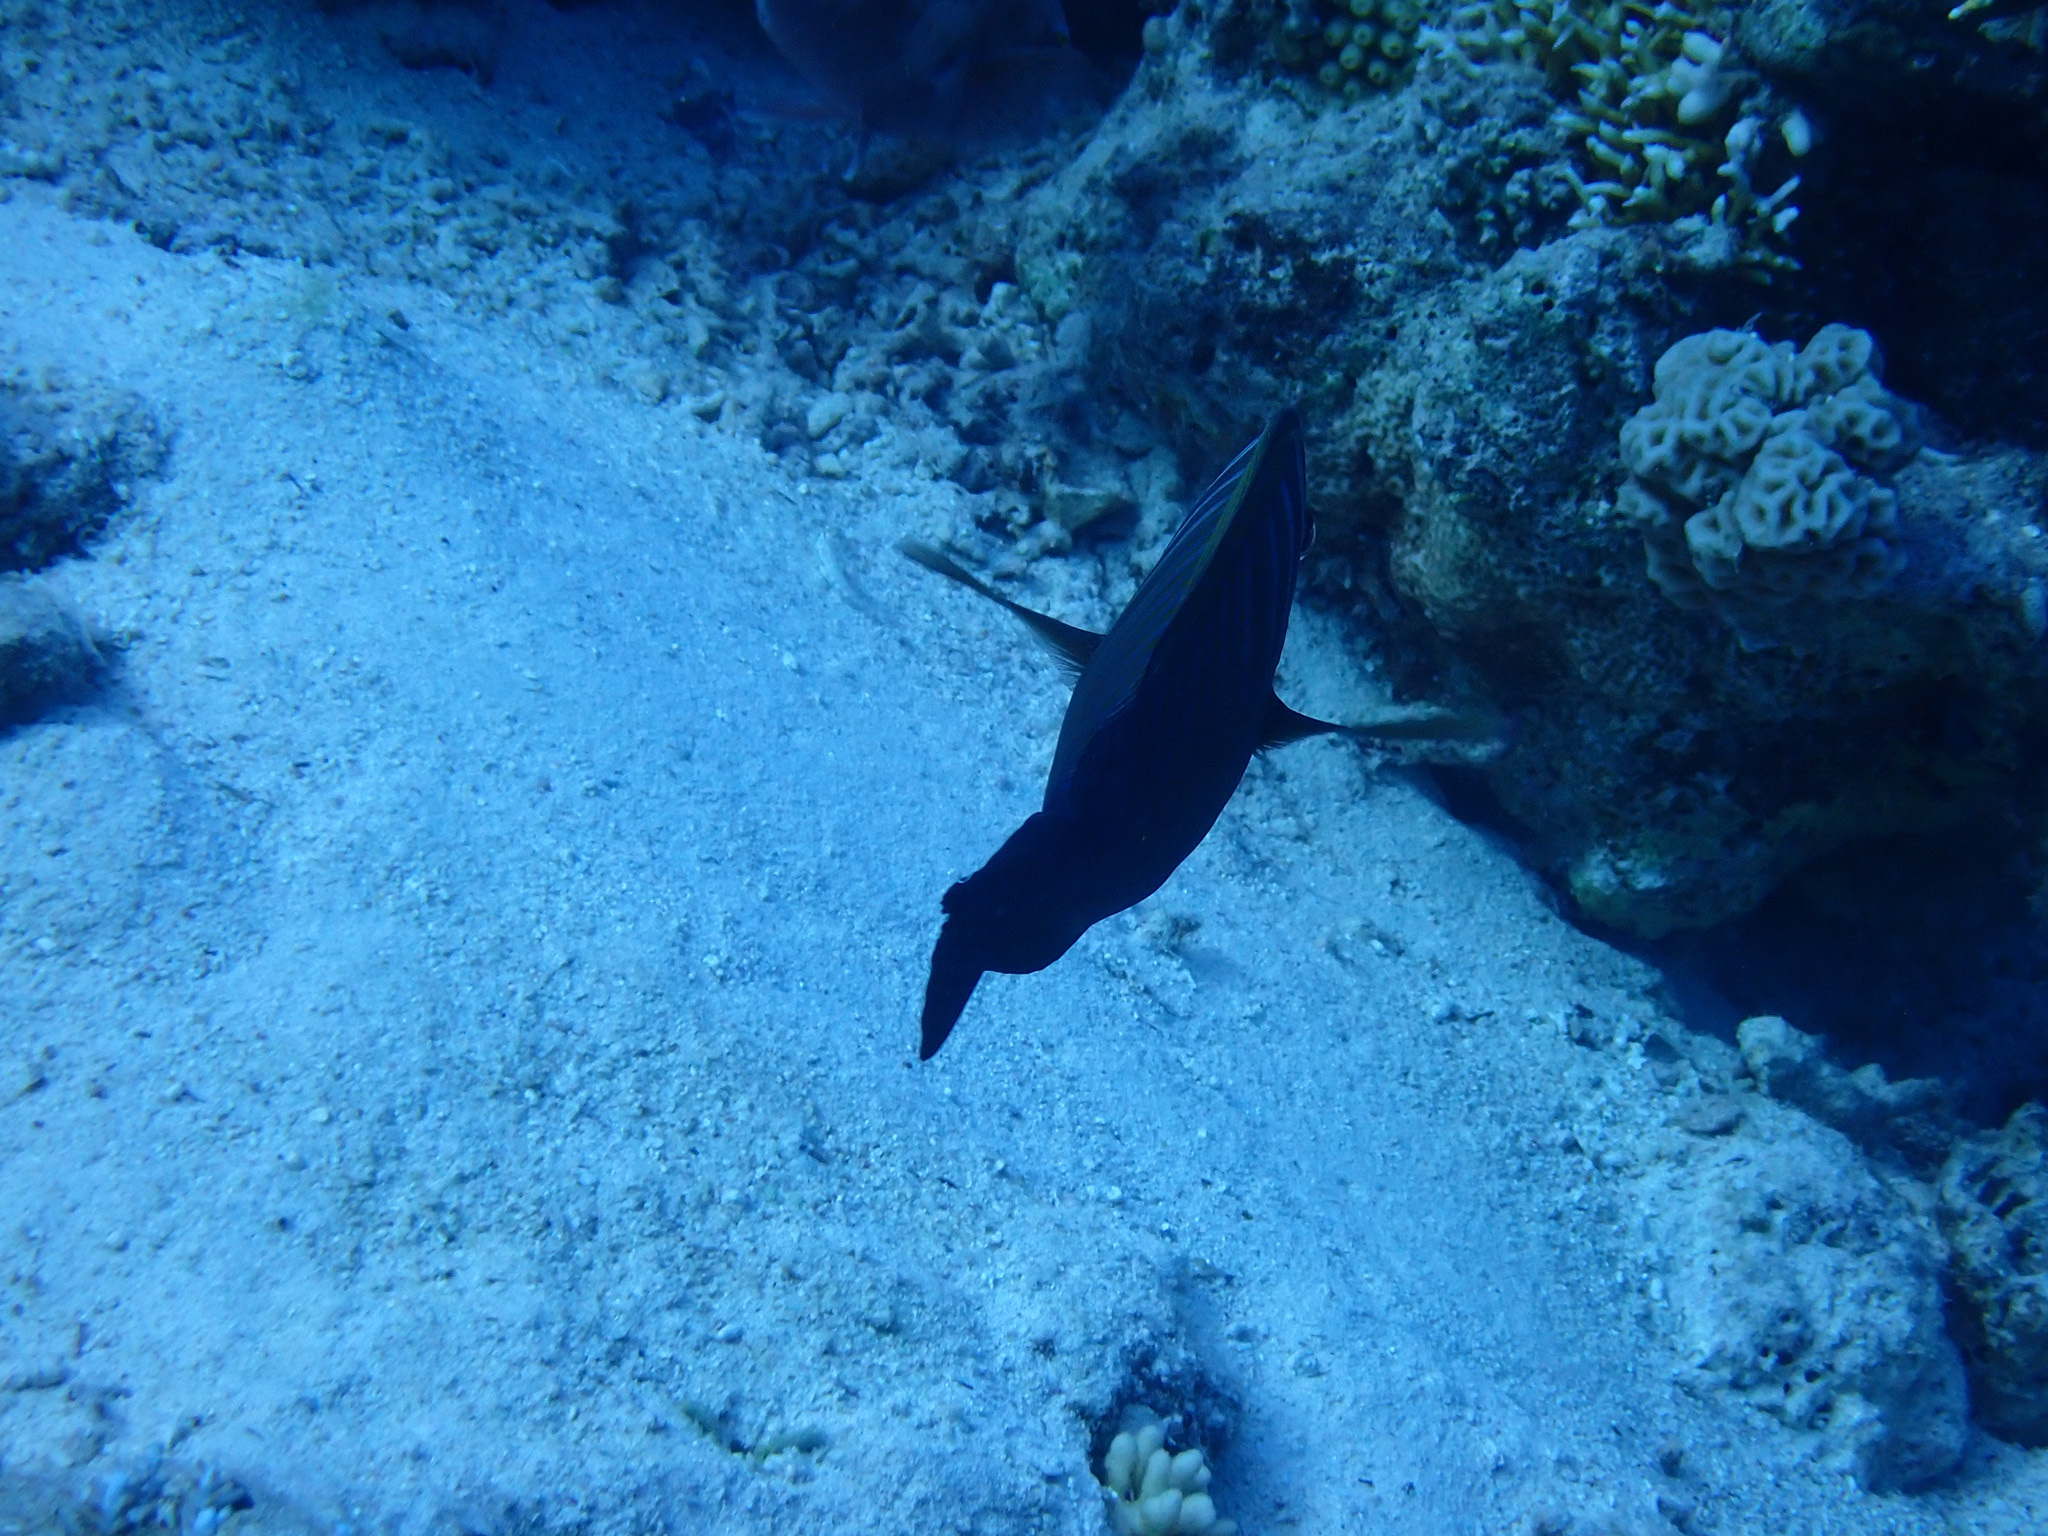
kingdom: Animalia
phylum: Chordata
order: Perciformes
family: Acanthuridae
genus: Zebrasoma
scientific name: Zebrasoma desjardinii
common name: Desjardin's sailfin tang
